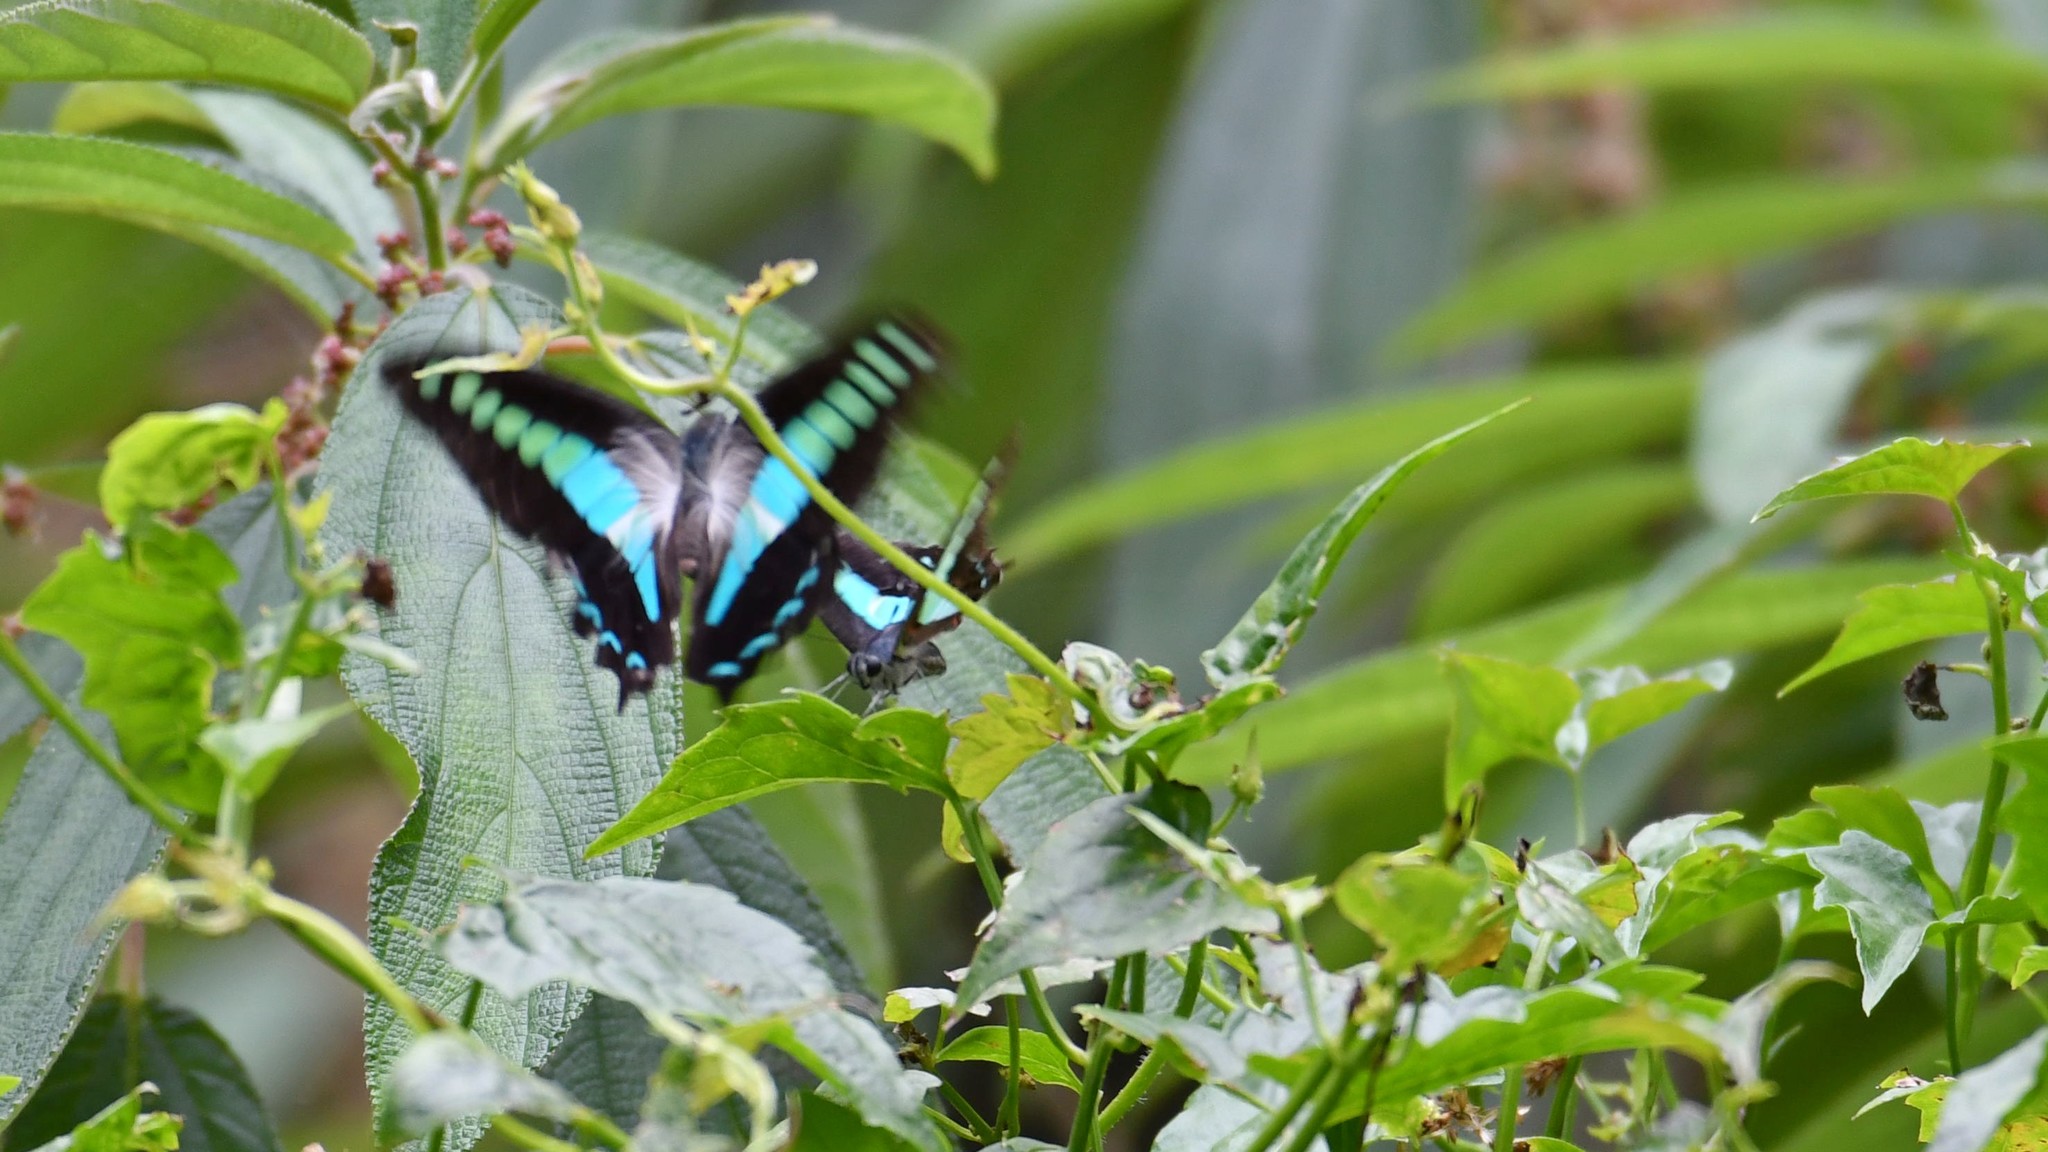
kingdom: Animalia
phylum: Arthropoda
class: Insecta
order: Lepidoptera
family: Papilionidae
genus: Graphium
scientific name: Graphium
